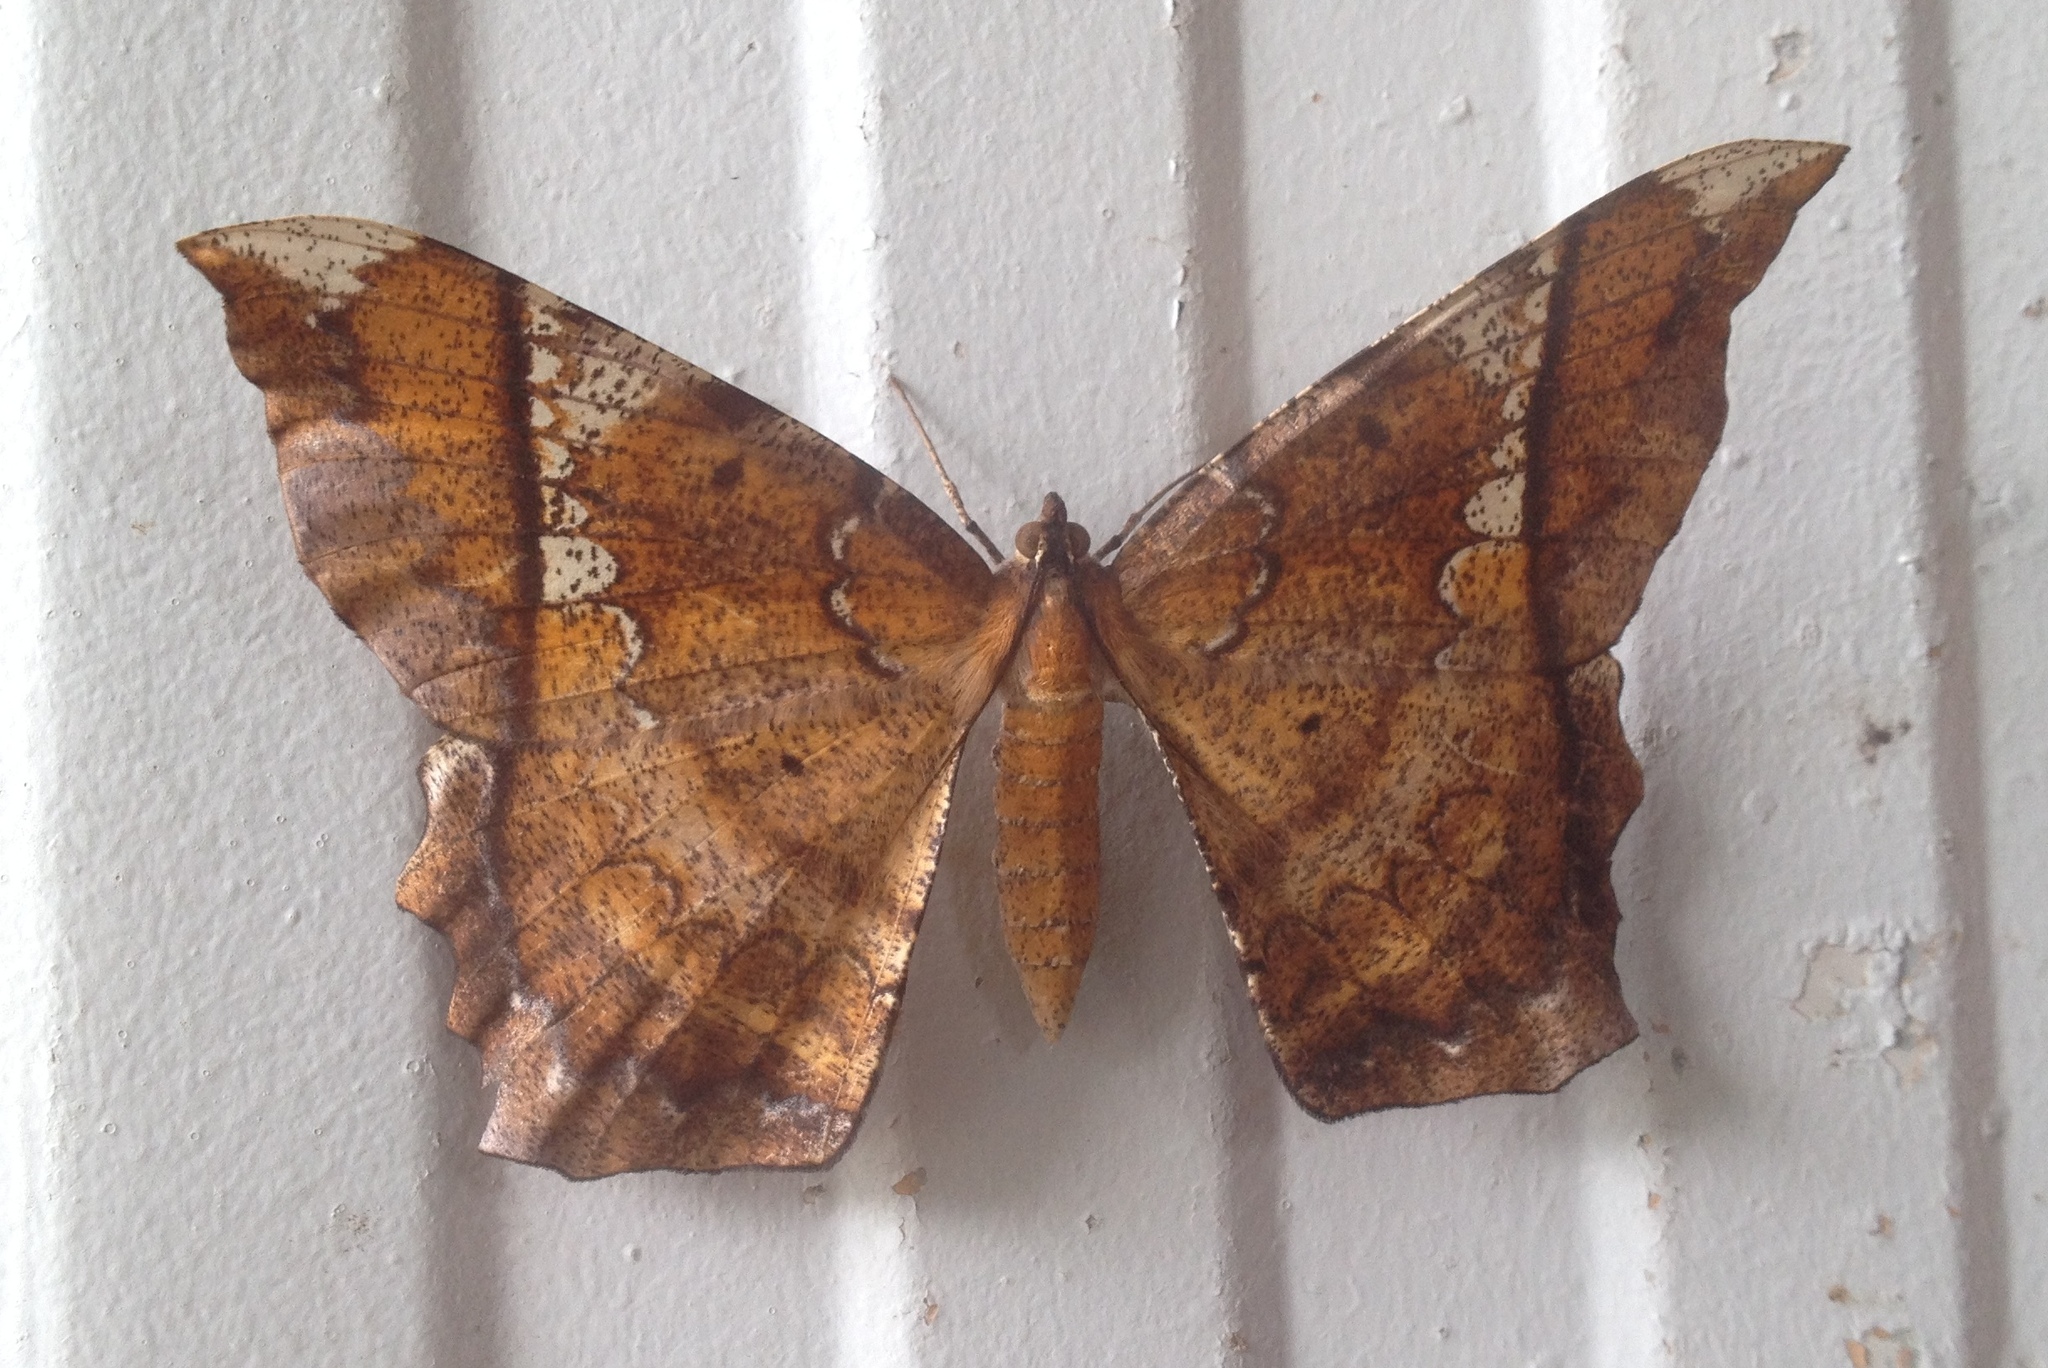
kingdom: Animalia
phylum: Arthropoda
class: Insecta
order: Lepidoptera
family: Geometridae
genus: Amblychia
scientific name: Amblychia angeronaria
